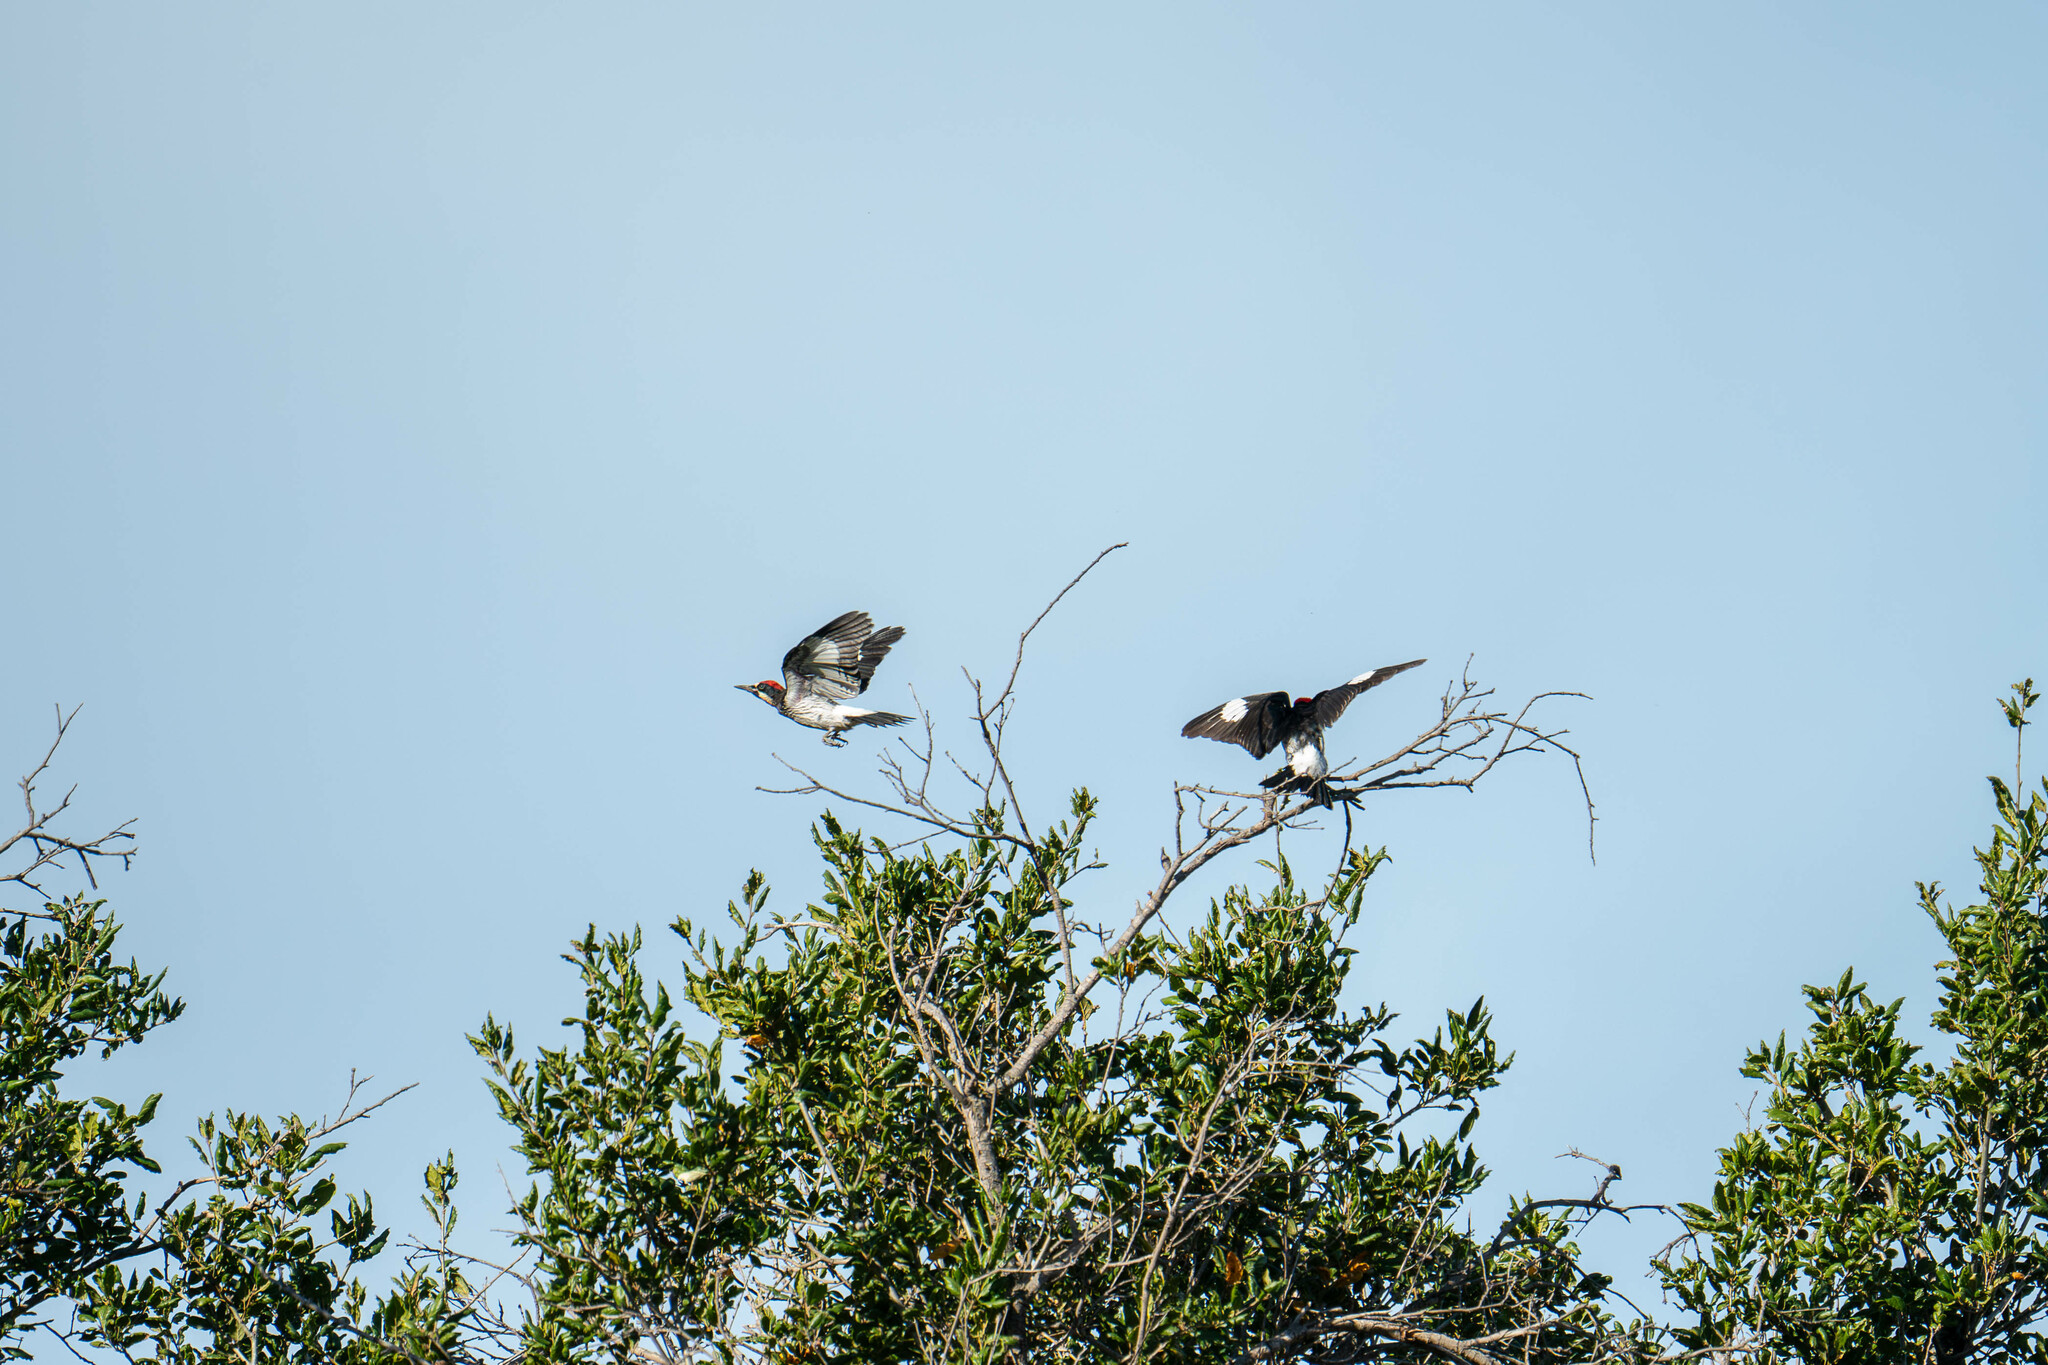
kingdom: Animalia
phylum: Chordata
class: Aves
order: Piciformes
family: Picidae
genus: Melanerpes
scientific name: Melanerpes formicivorus
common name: Acorn woodpecker
